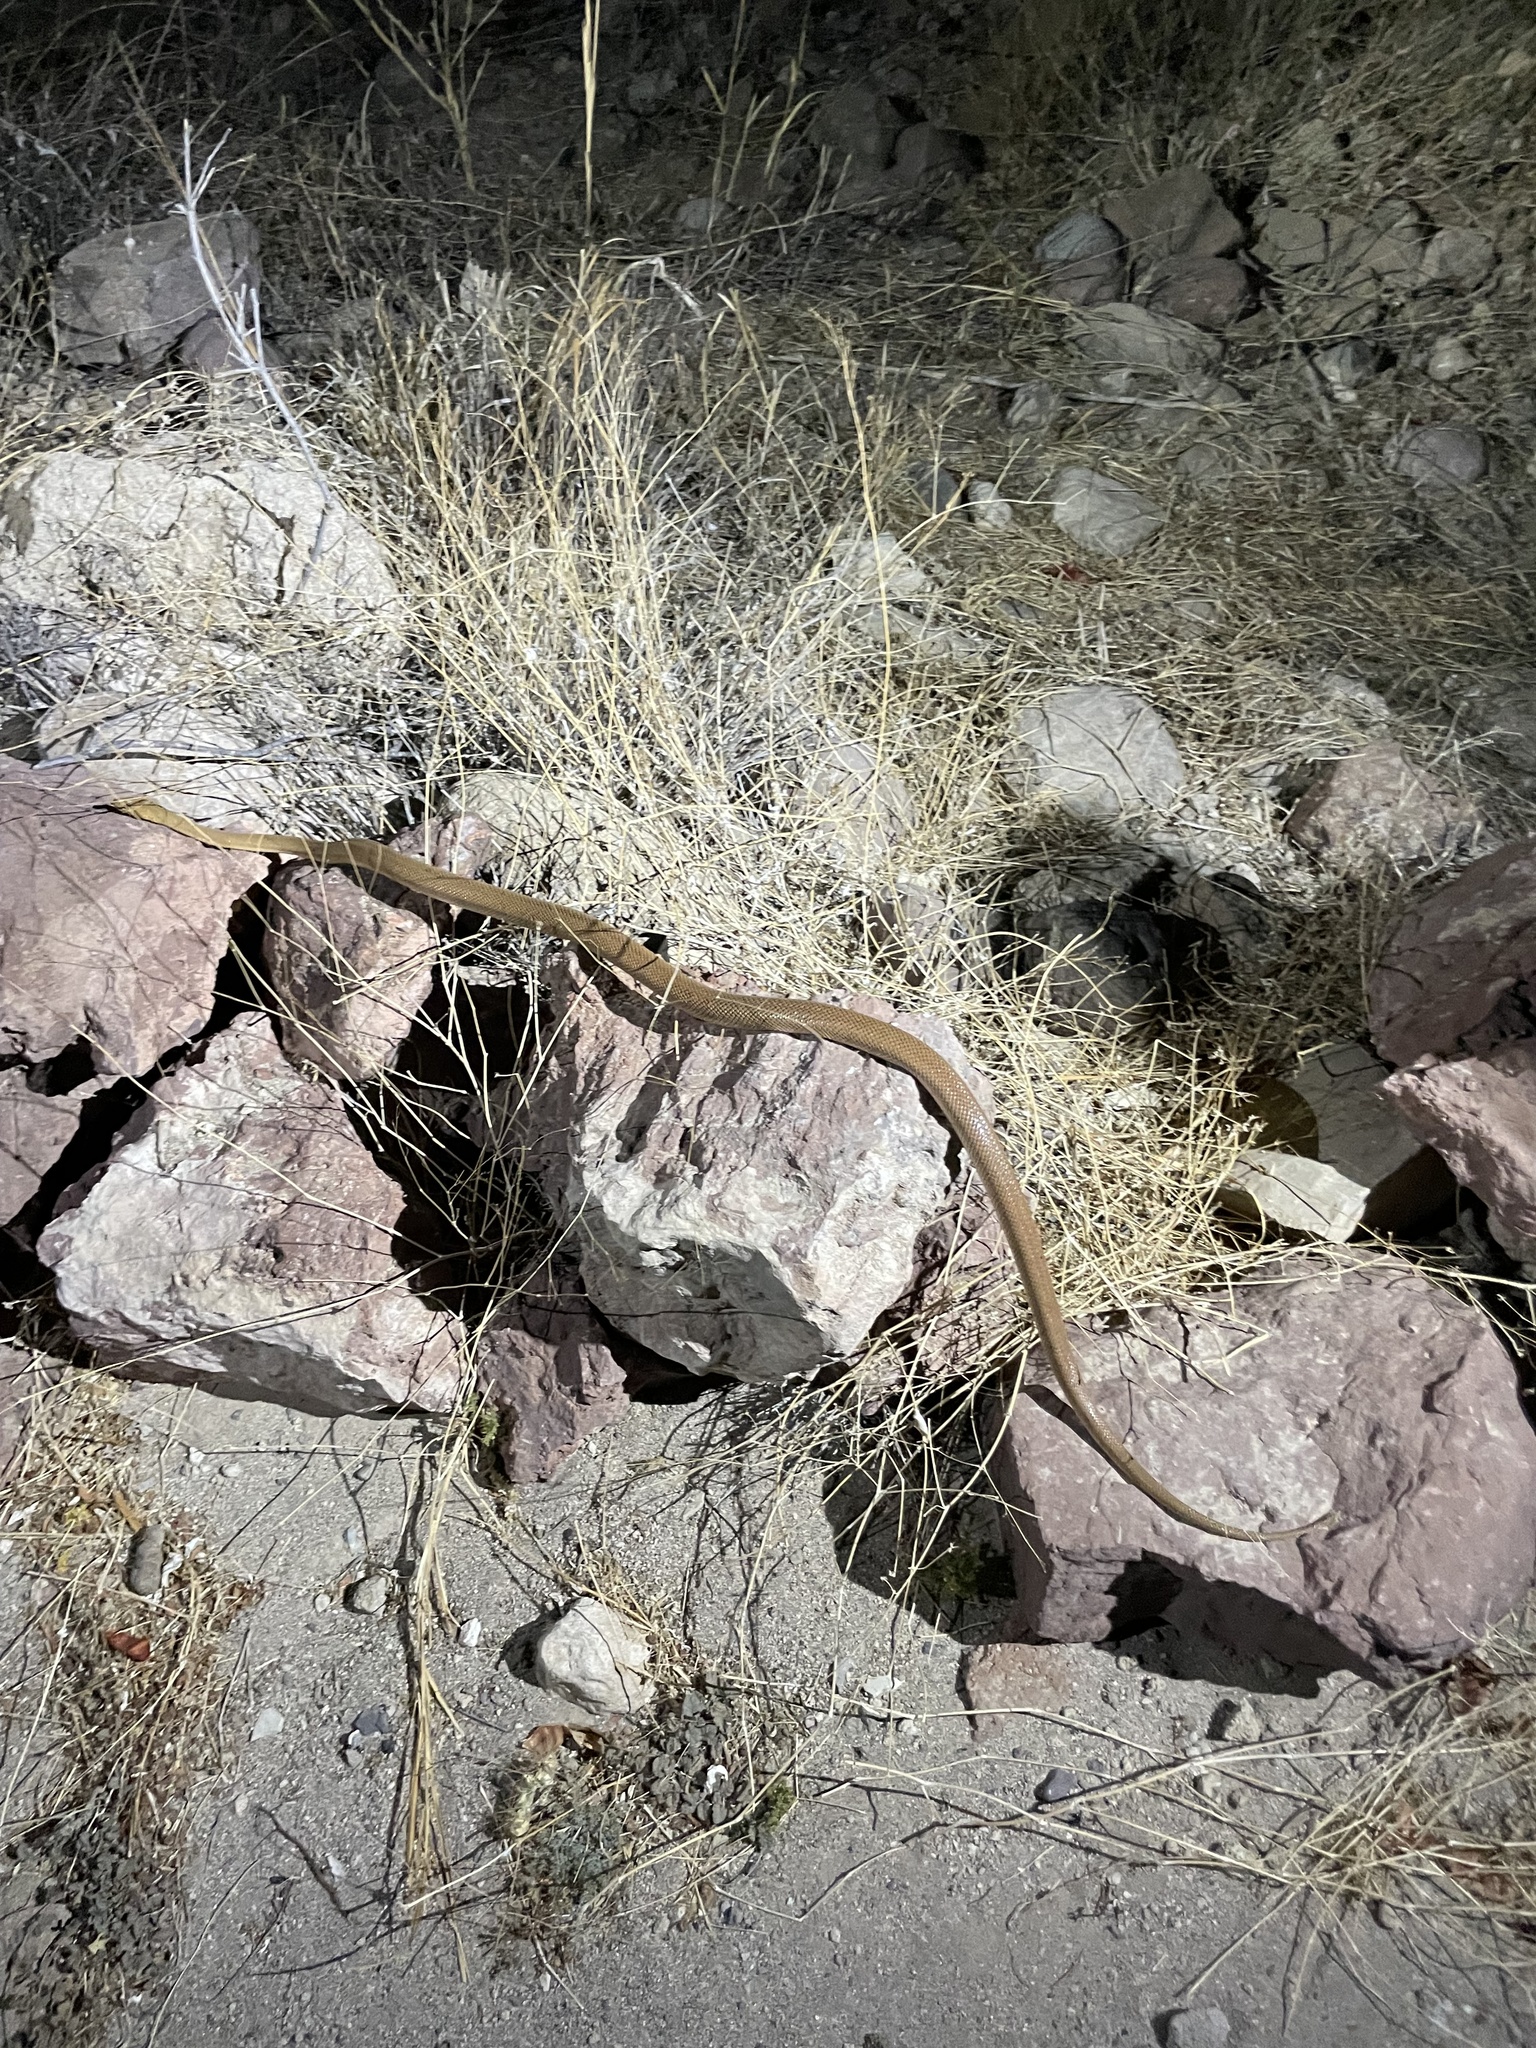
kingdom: Animalia
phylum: Chordata
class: Squamata
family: Colubridae
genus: Bogertophis
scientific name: Bogertophis rosaliae
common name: Baja california rat snake
